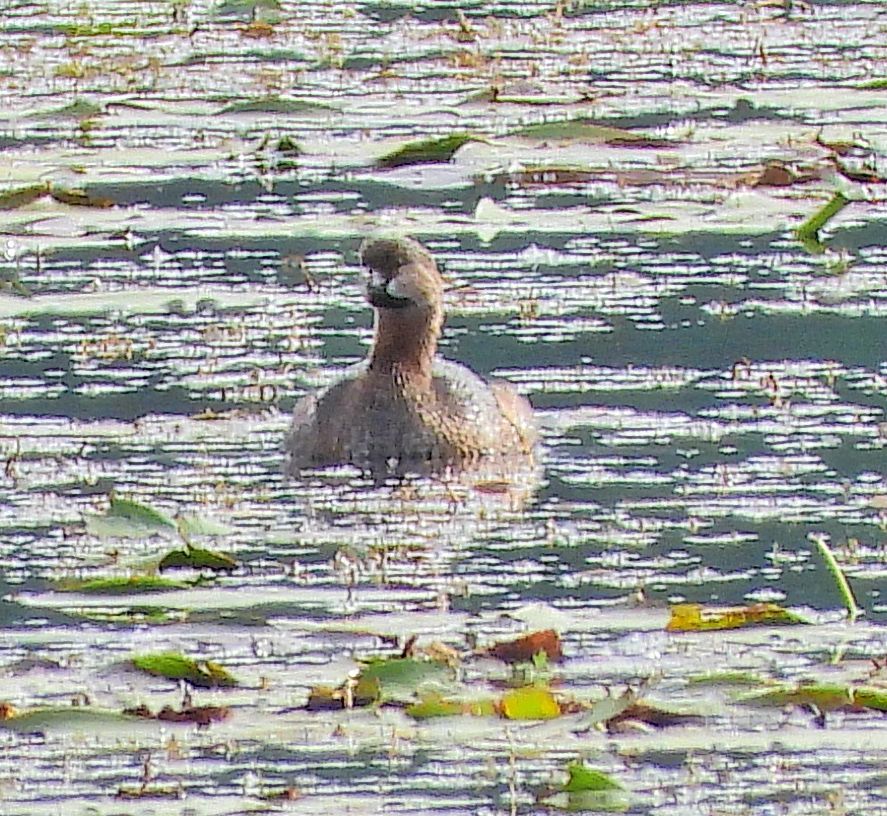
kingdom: Animalia
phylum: Chordata
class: Aves
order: Podicipediformes
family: Podicipedidae
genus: Podilymbus
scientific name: Podilymbus podiceps
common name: Pied-billed grebe
